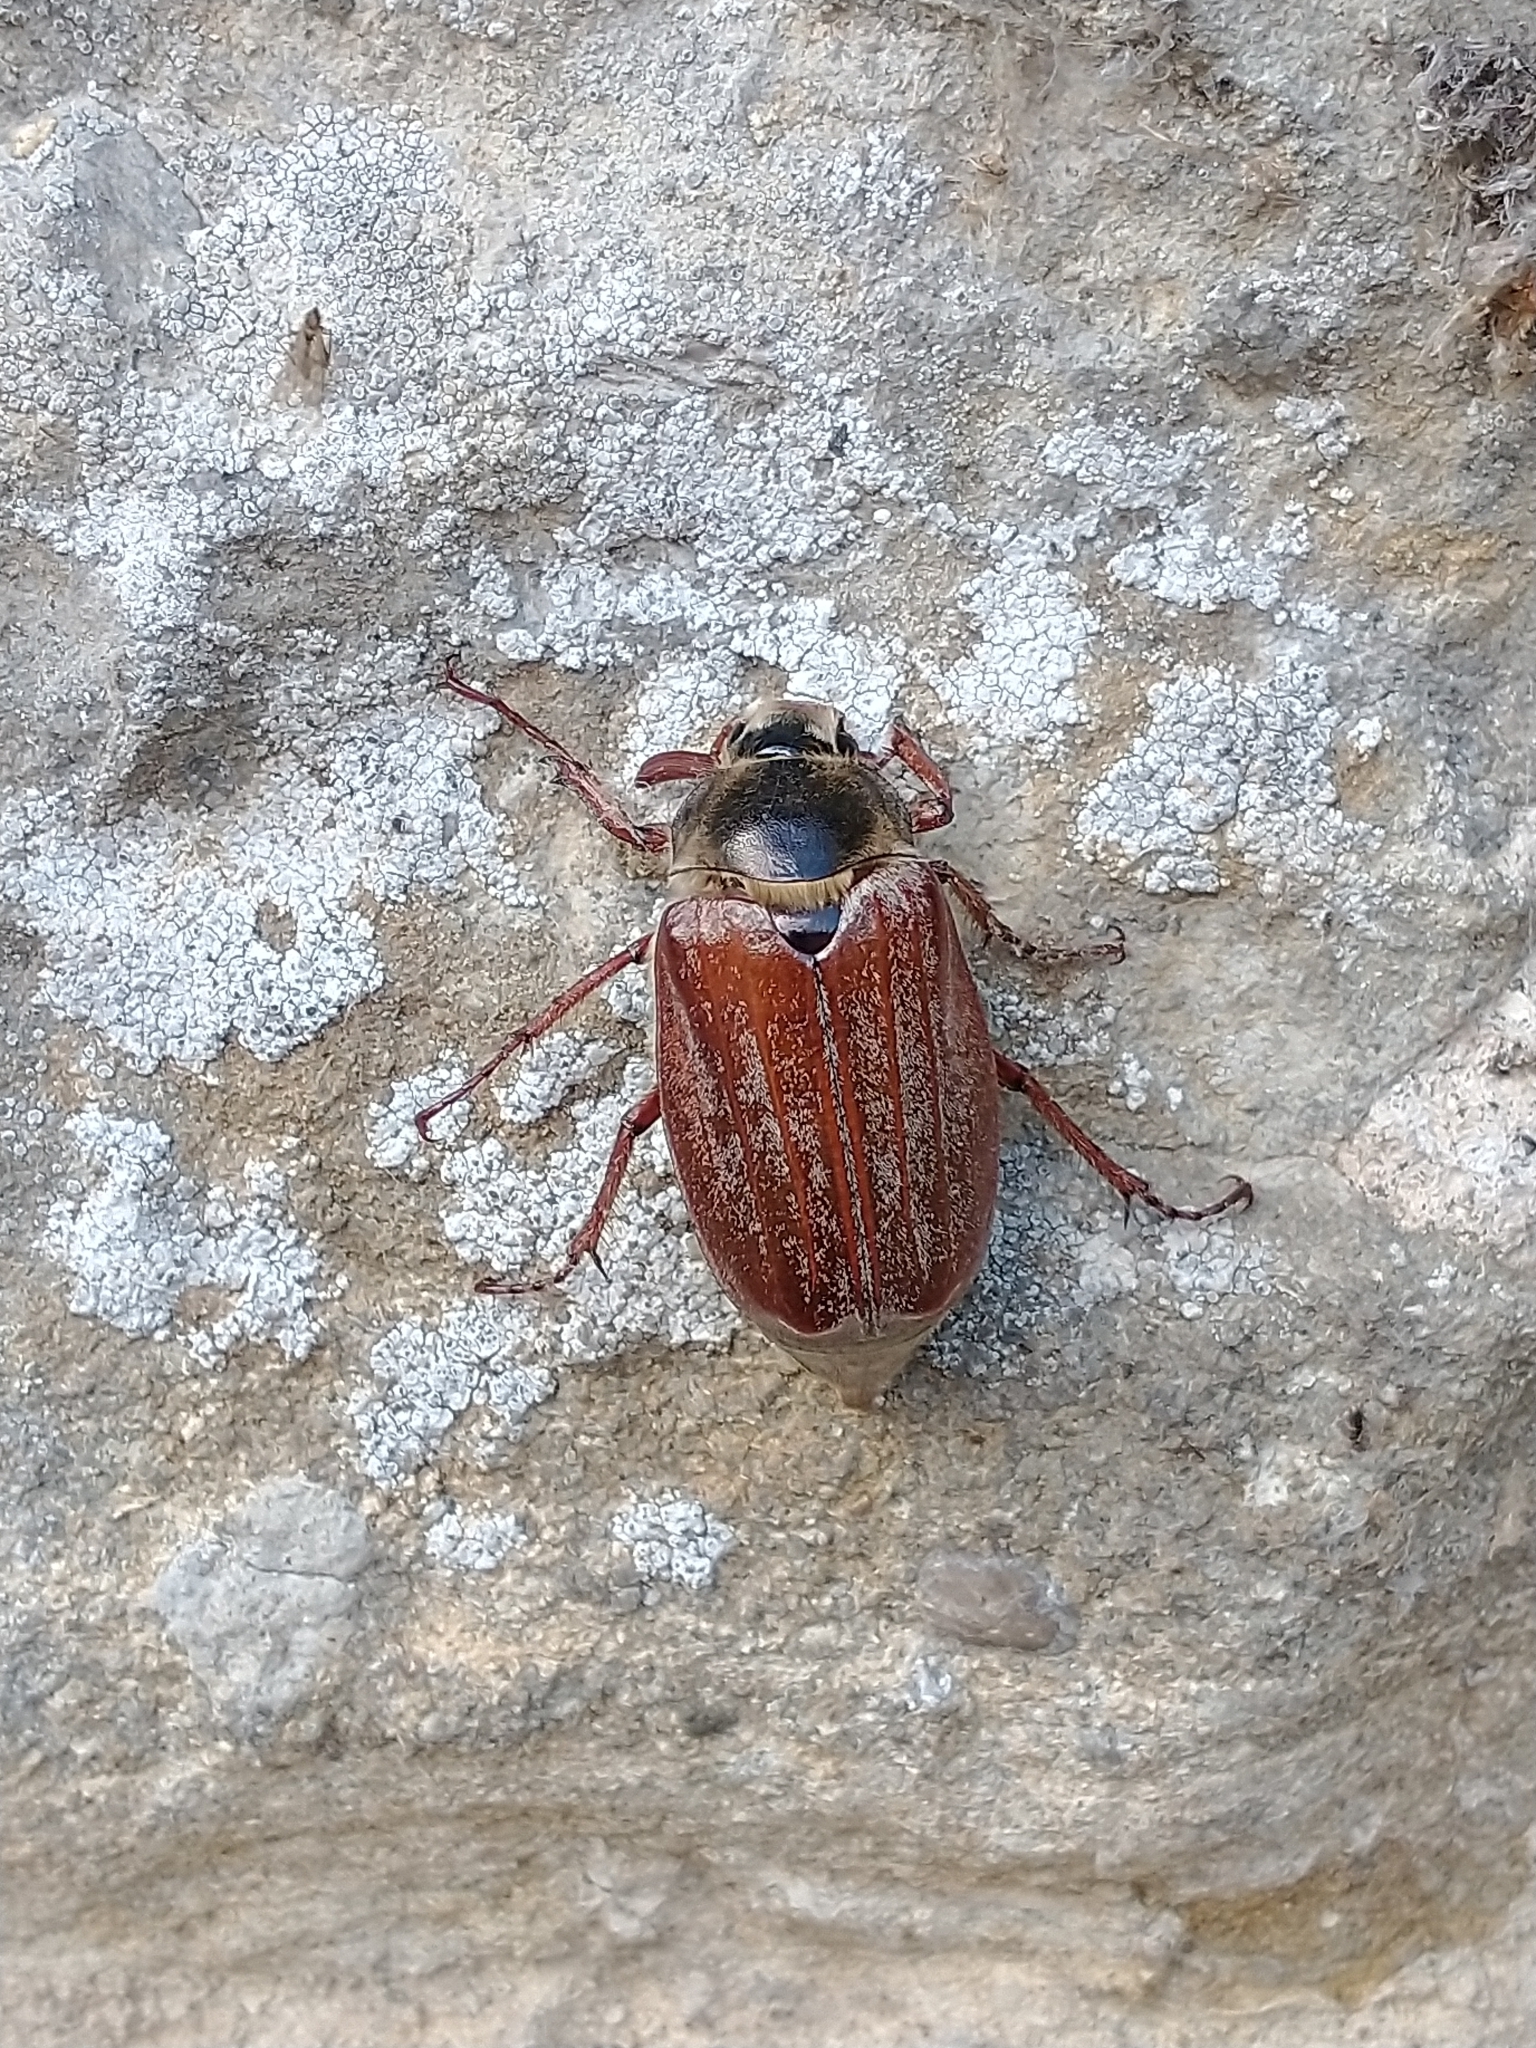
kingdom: Animalia
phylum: Arthropoda
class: Insecta
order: Coleoptera
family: Scarabaeidae
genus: Melolontha
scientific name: Melolontha melolontha
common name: Cockchafer maybeetle
